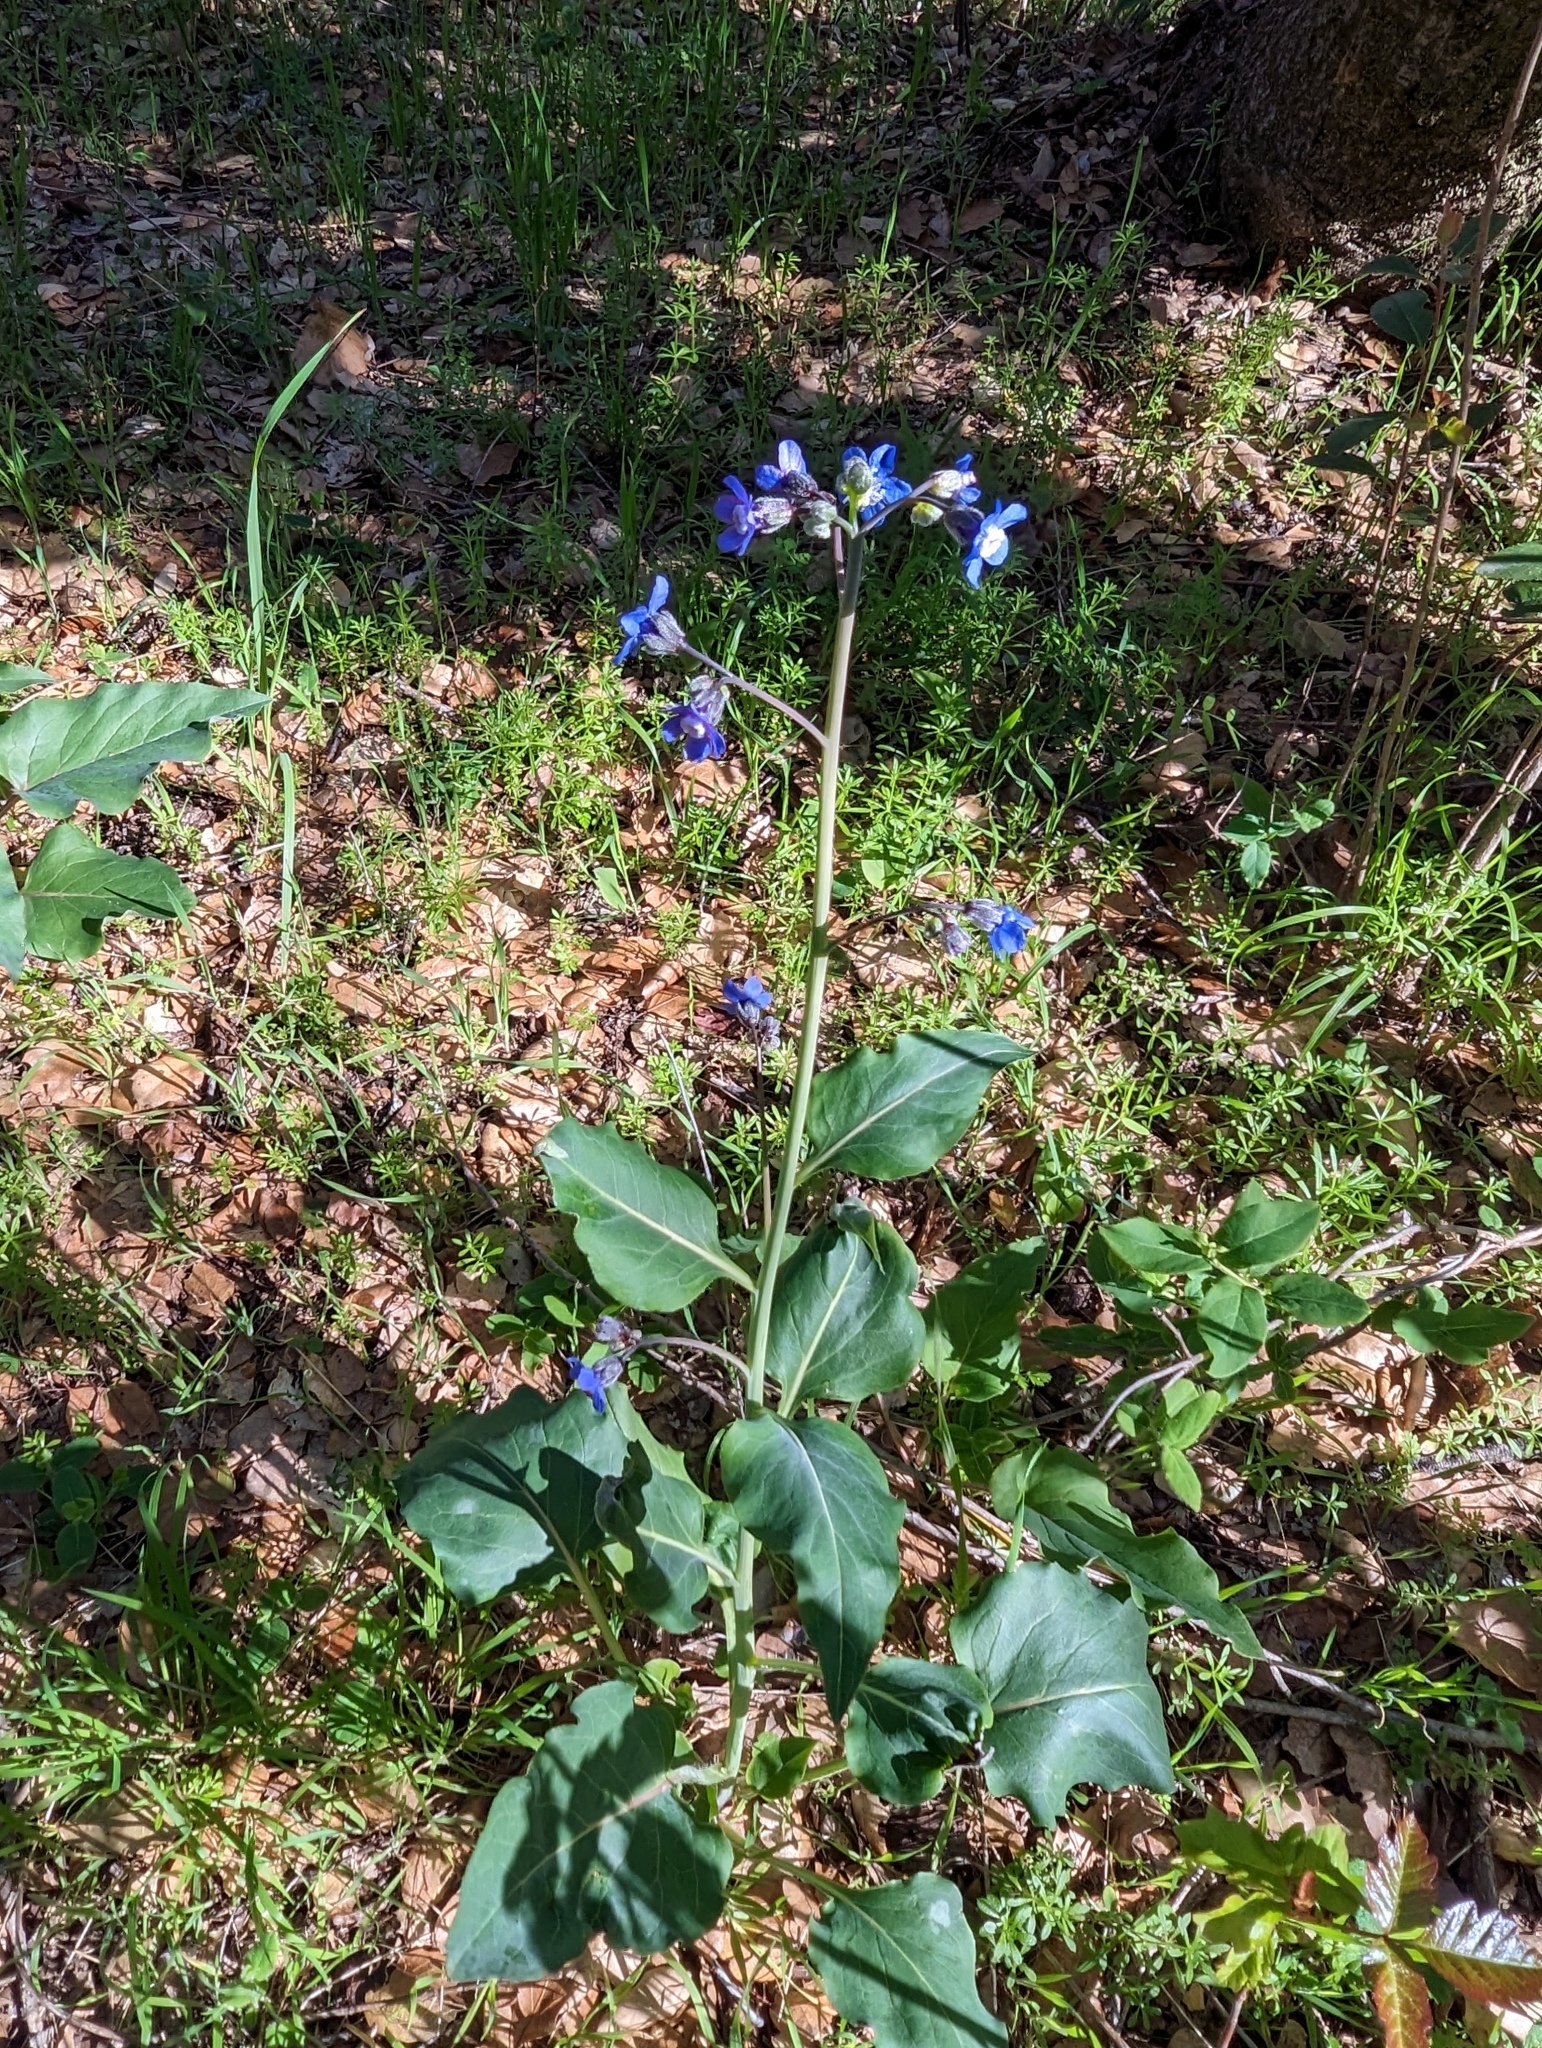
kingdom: Plantae
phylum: Tracheophyta
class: Magnoliopsida
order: Boraginales
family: Boraginaceae
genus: Adelinia
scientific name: Adelinia grande
